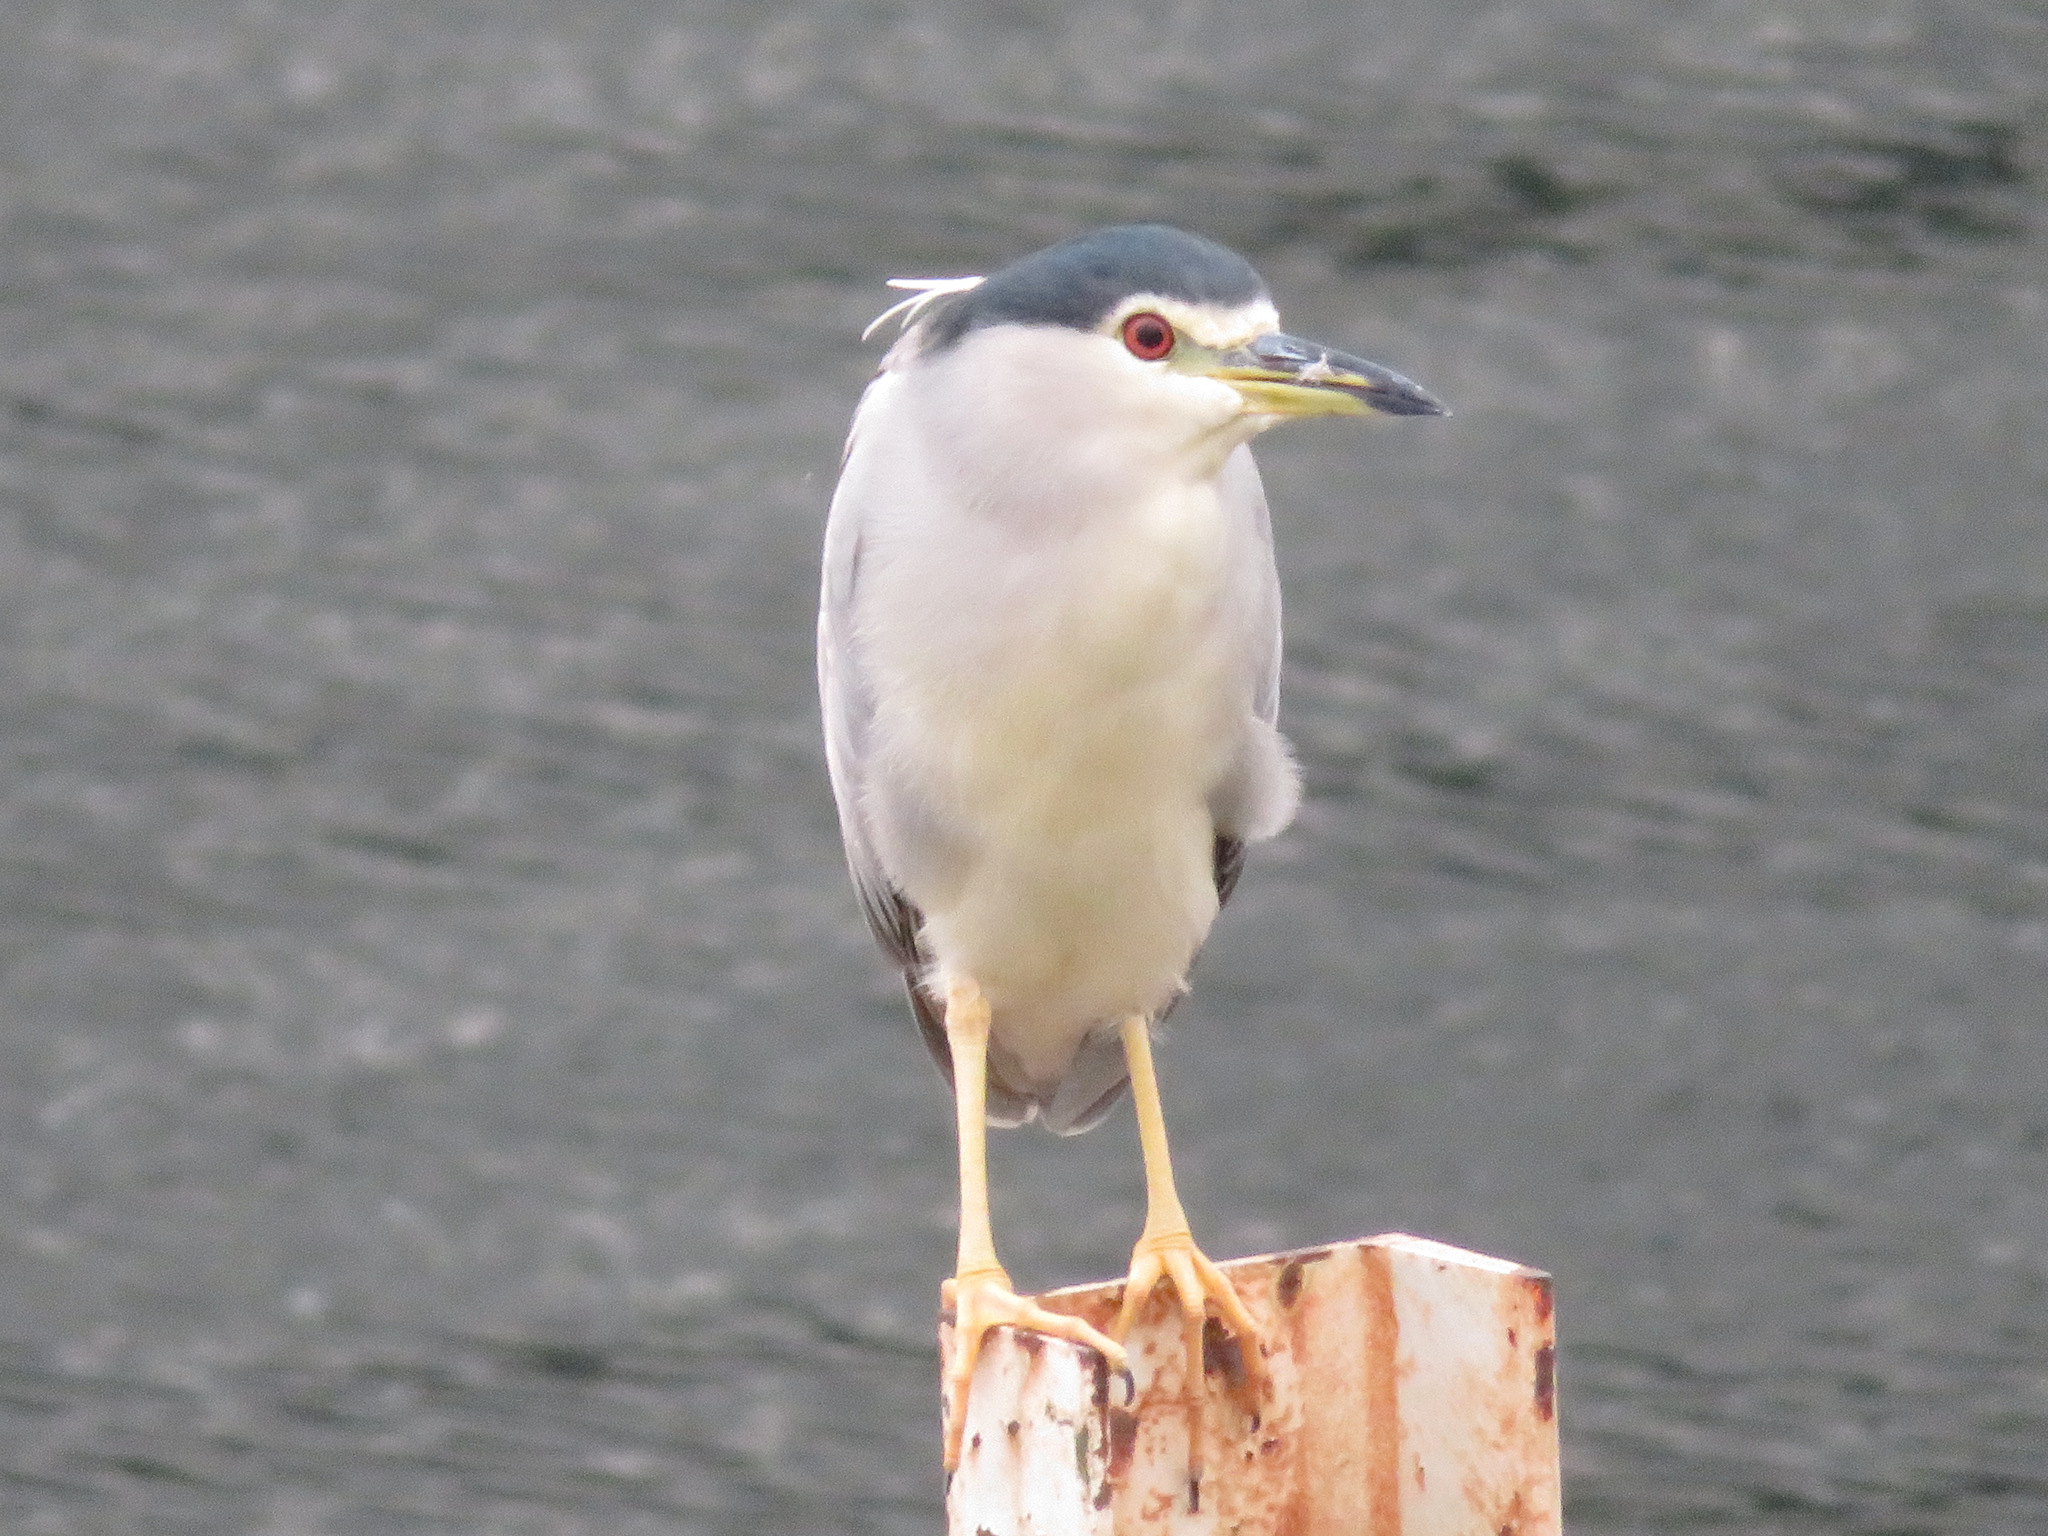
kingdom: Animalia
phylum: Chordata
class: Aves
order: Pelecaniformes
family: Ardeidae
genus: Nycticorax
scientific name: Nycticorax nycticorax
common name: Black-crowned night heron
